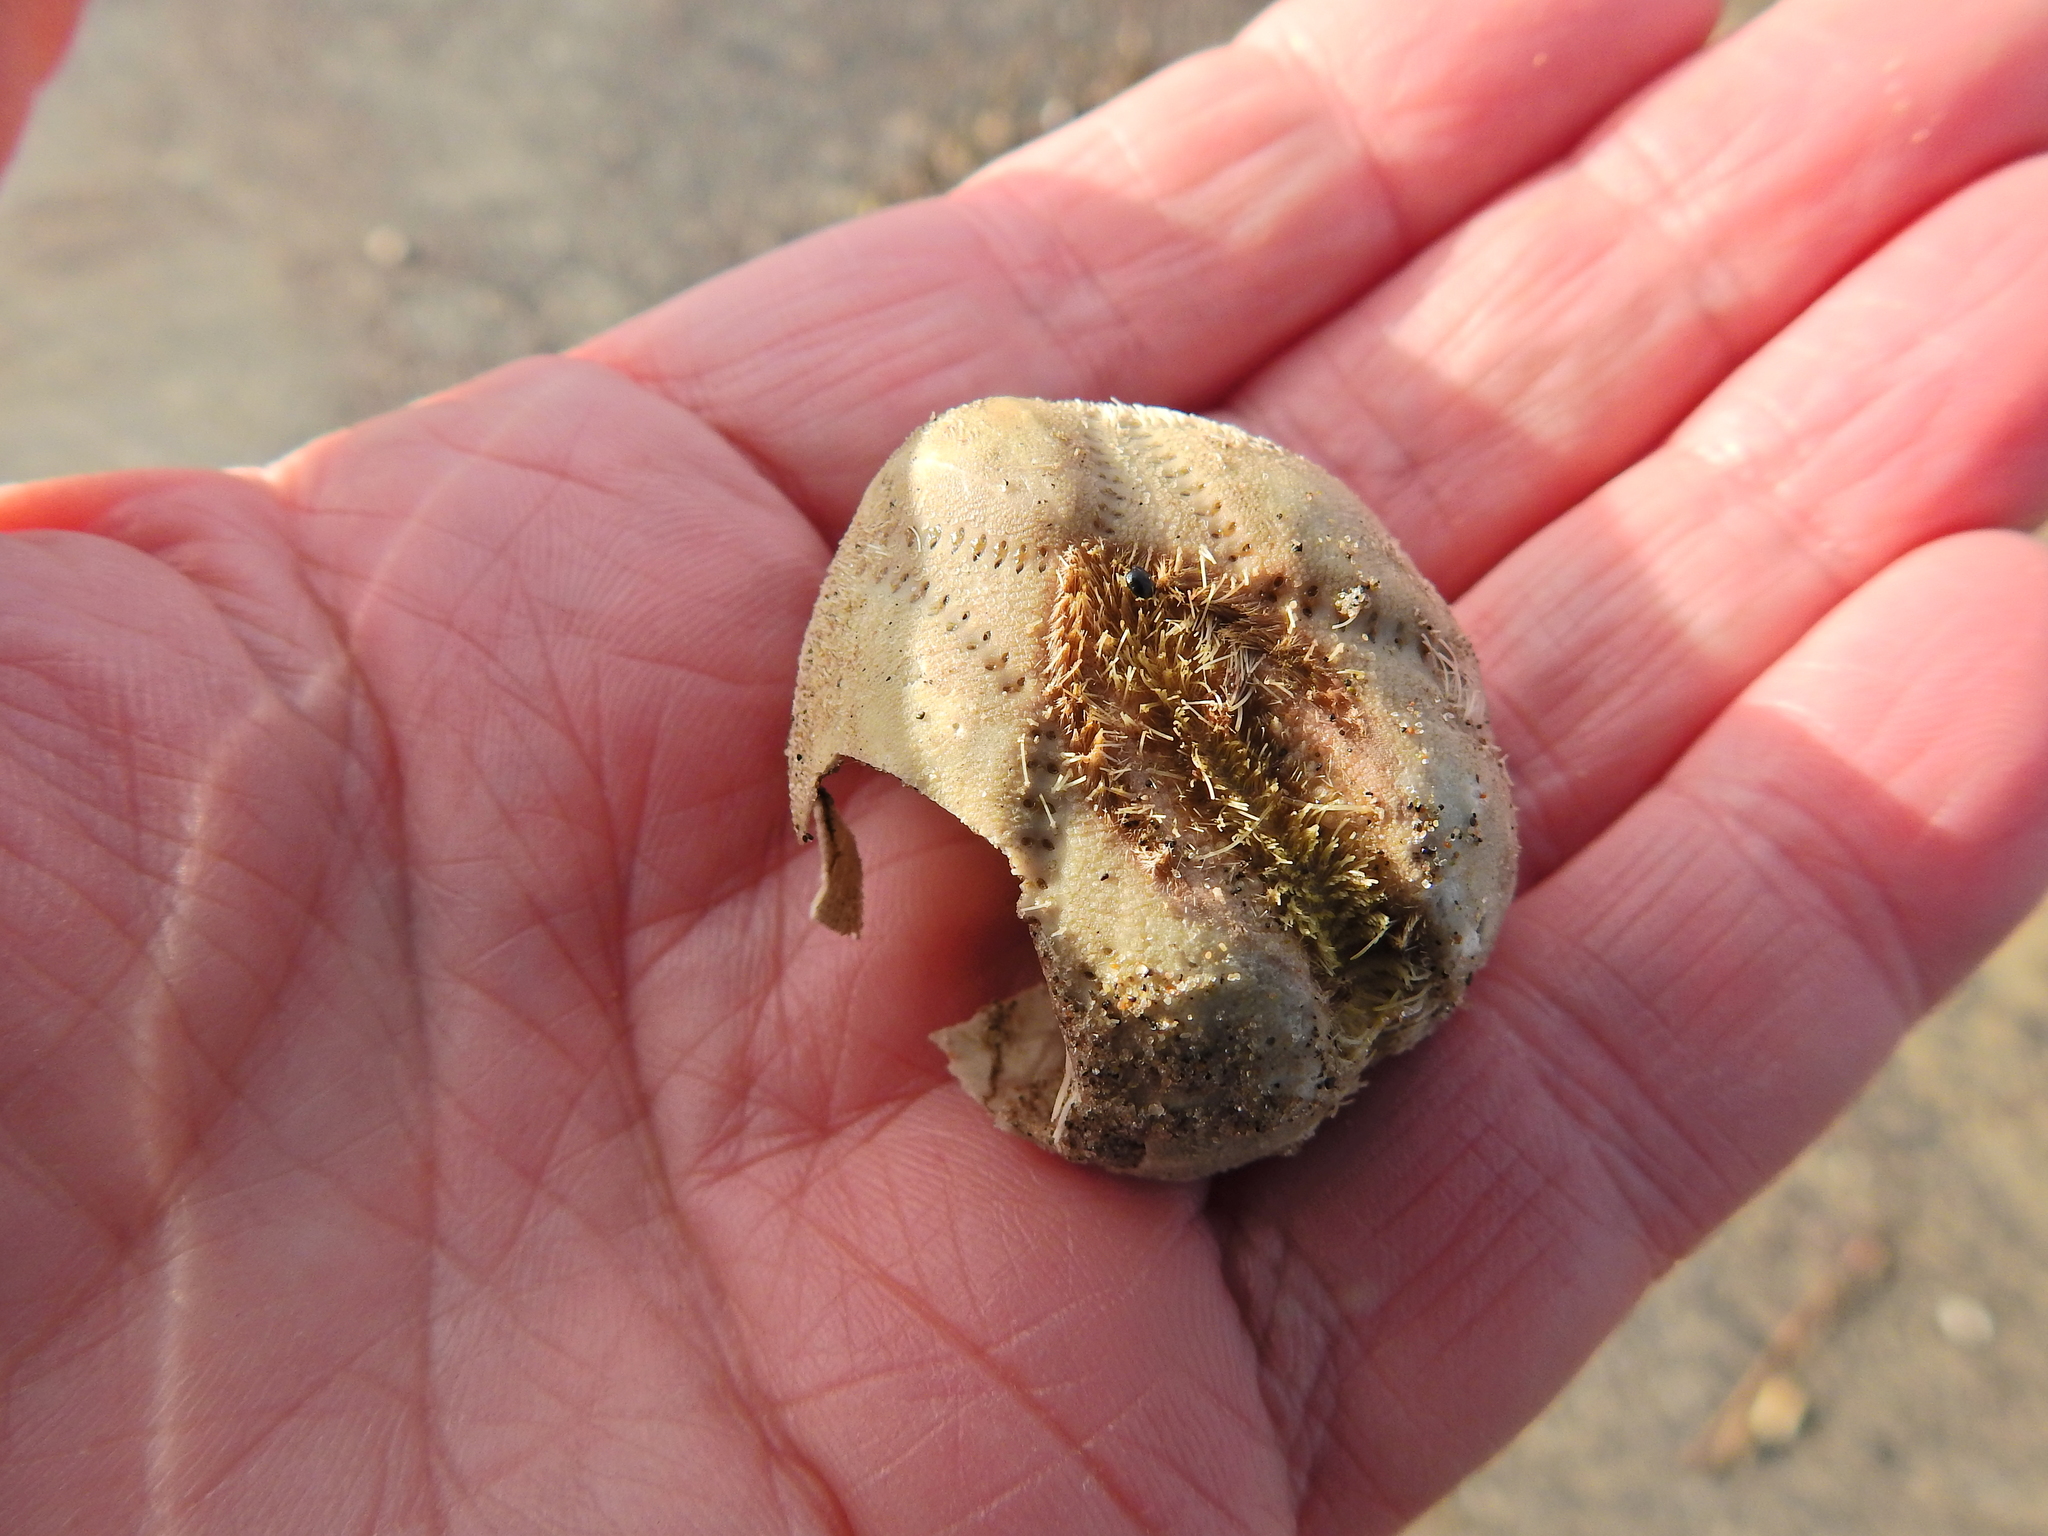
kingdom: Animalia
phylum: Echinodermata
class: Echinoidea
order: Spatangoida
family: Loveniidae
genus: Echinocardium
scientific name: Echinocardium cordatum
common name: Heart-urchin
